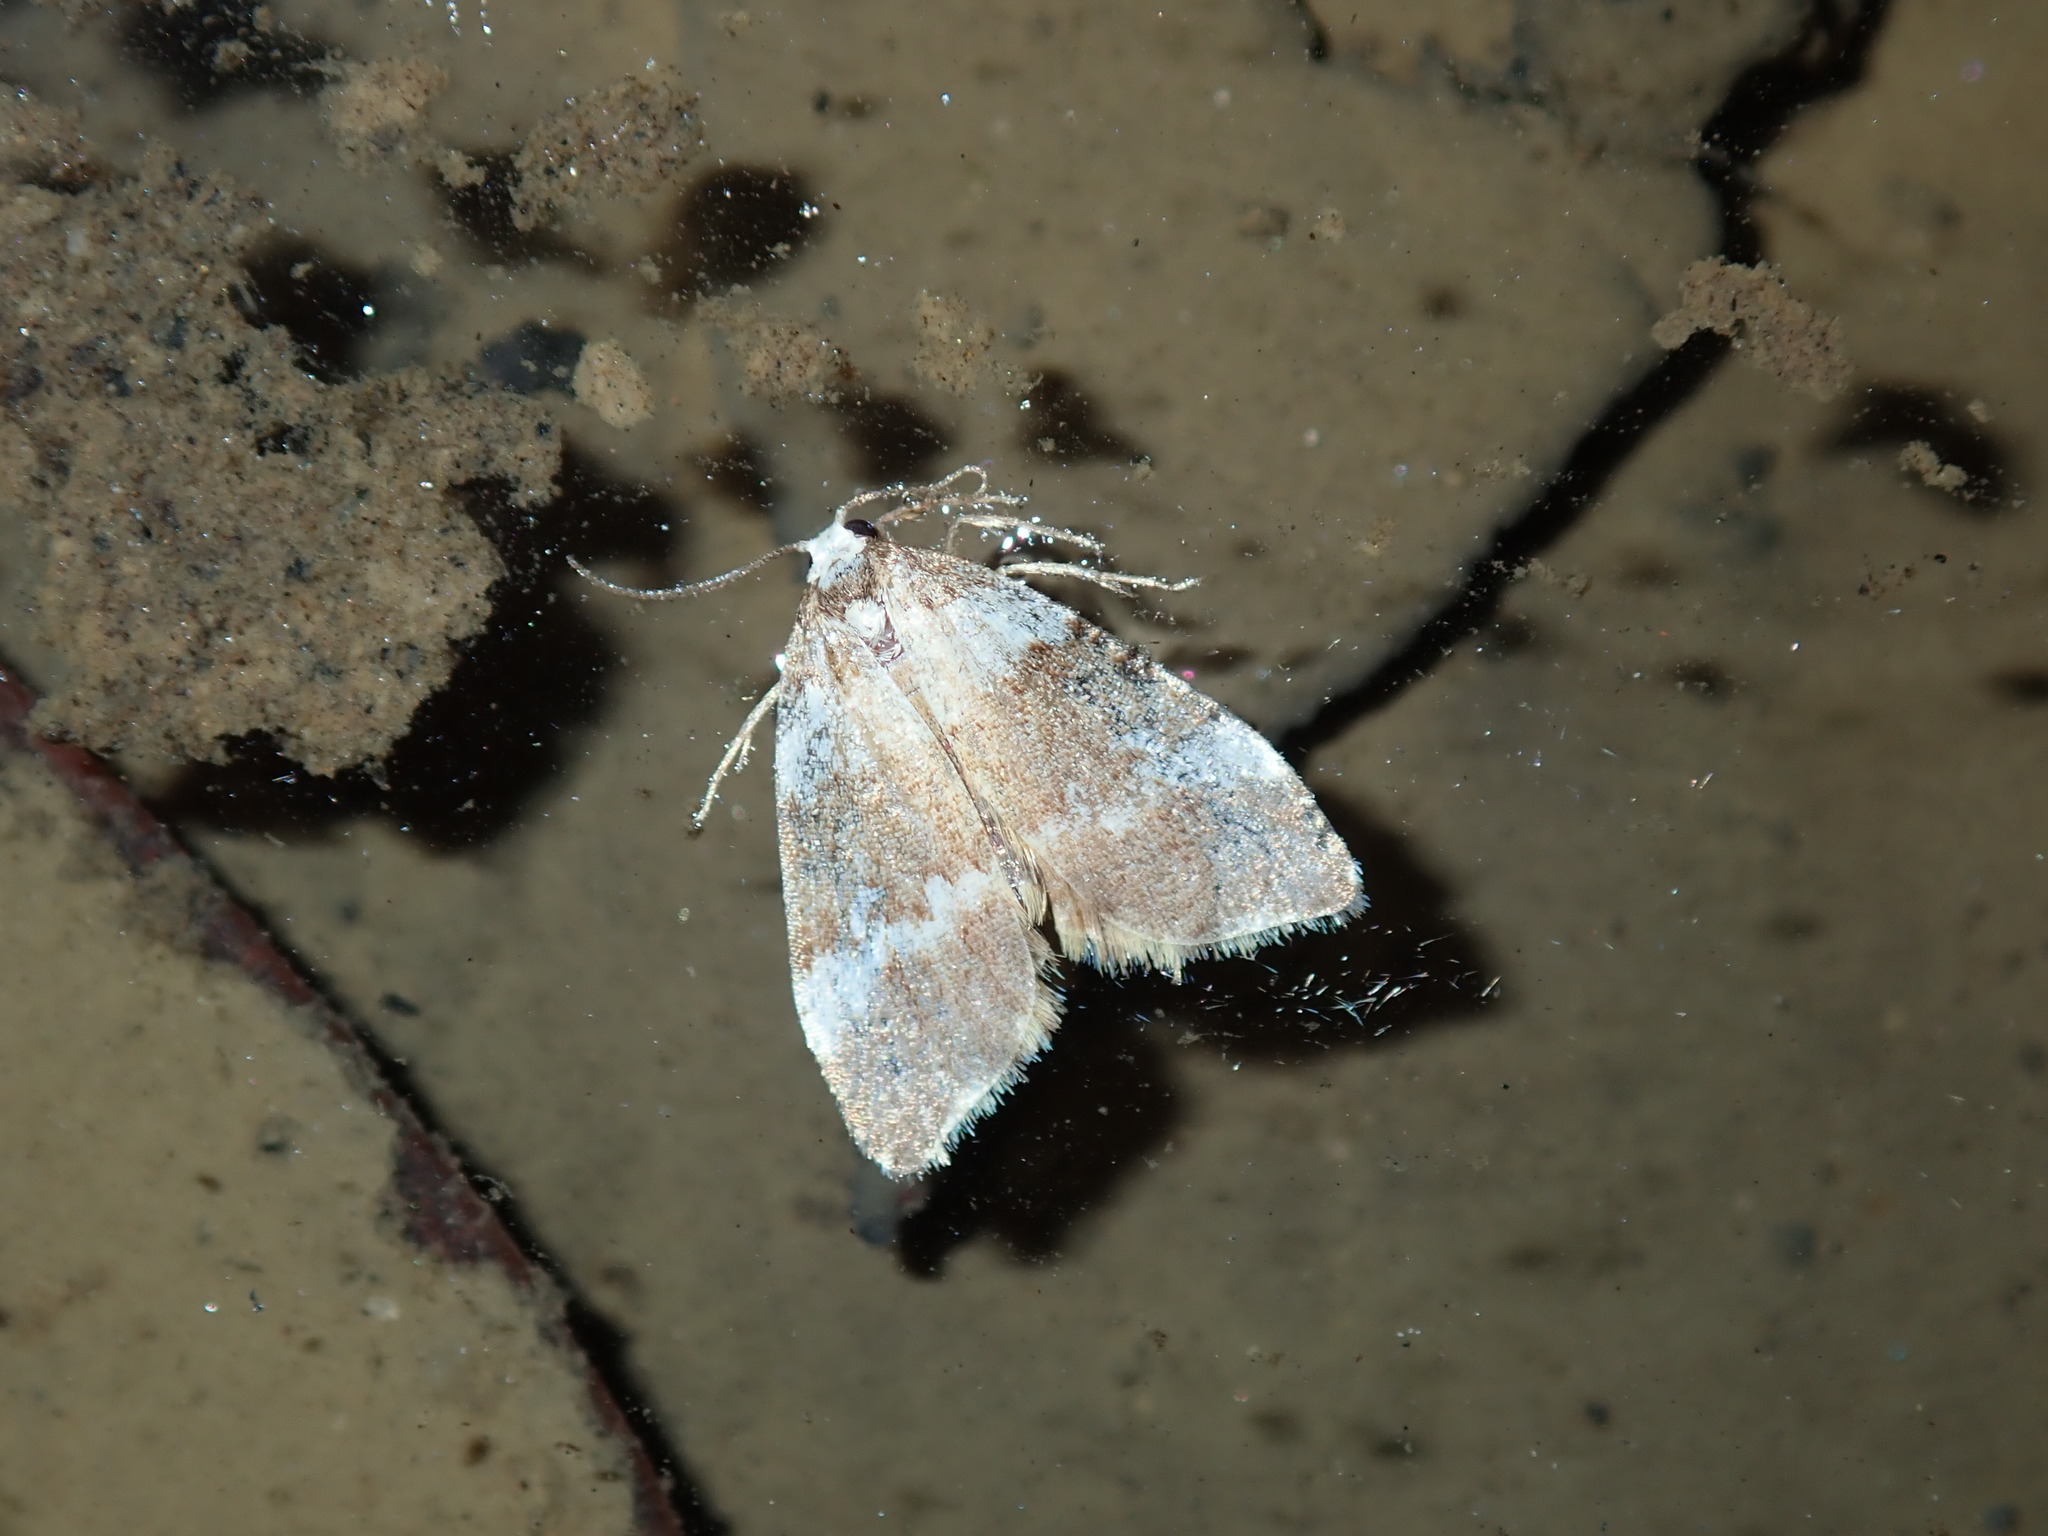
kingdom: Animalia
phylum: Arthropoda
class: Insecta
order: Lepidoptera
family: Erebidae
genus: Halone
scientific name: Halone sejuncta
